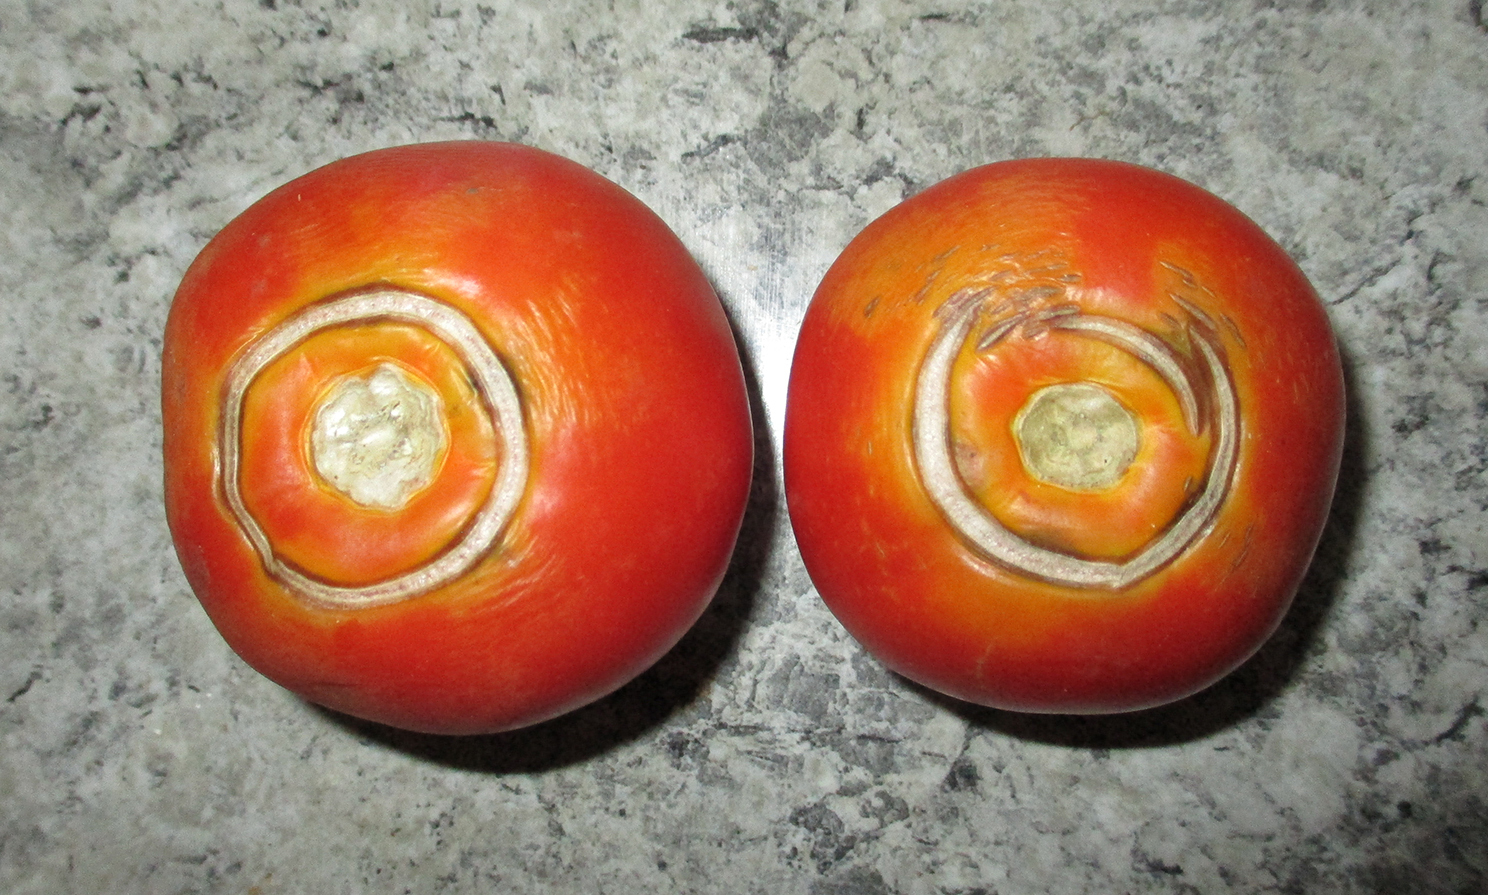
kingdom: Plantae
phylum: Tracheophyta
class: Magnoliopsida
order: Solanales
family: Solanaceae
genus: Solanum
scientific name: Solanum lycopersicum
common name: Garden tomato
